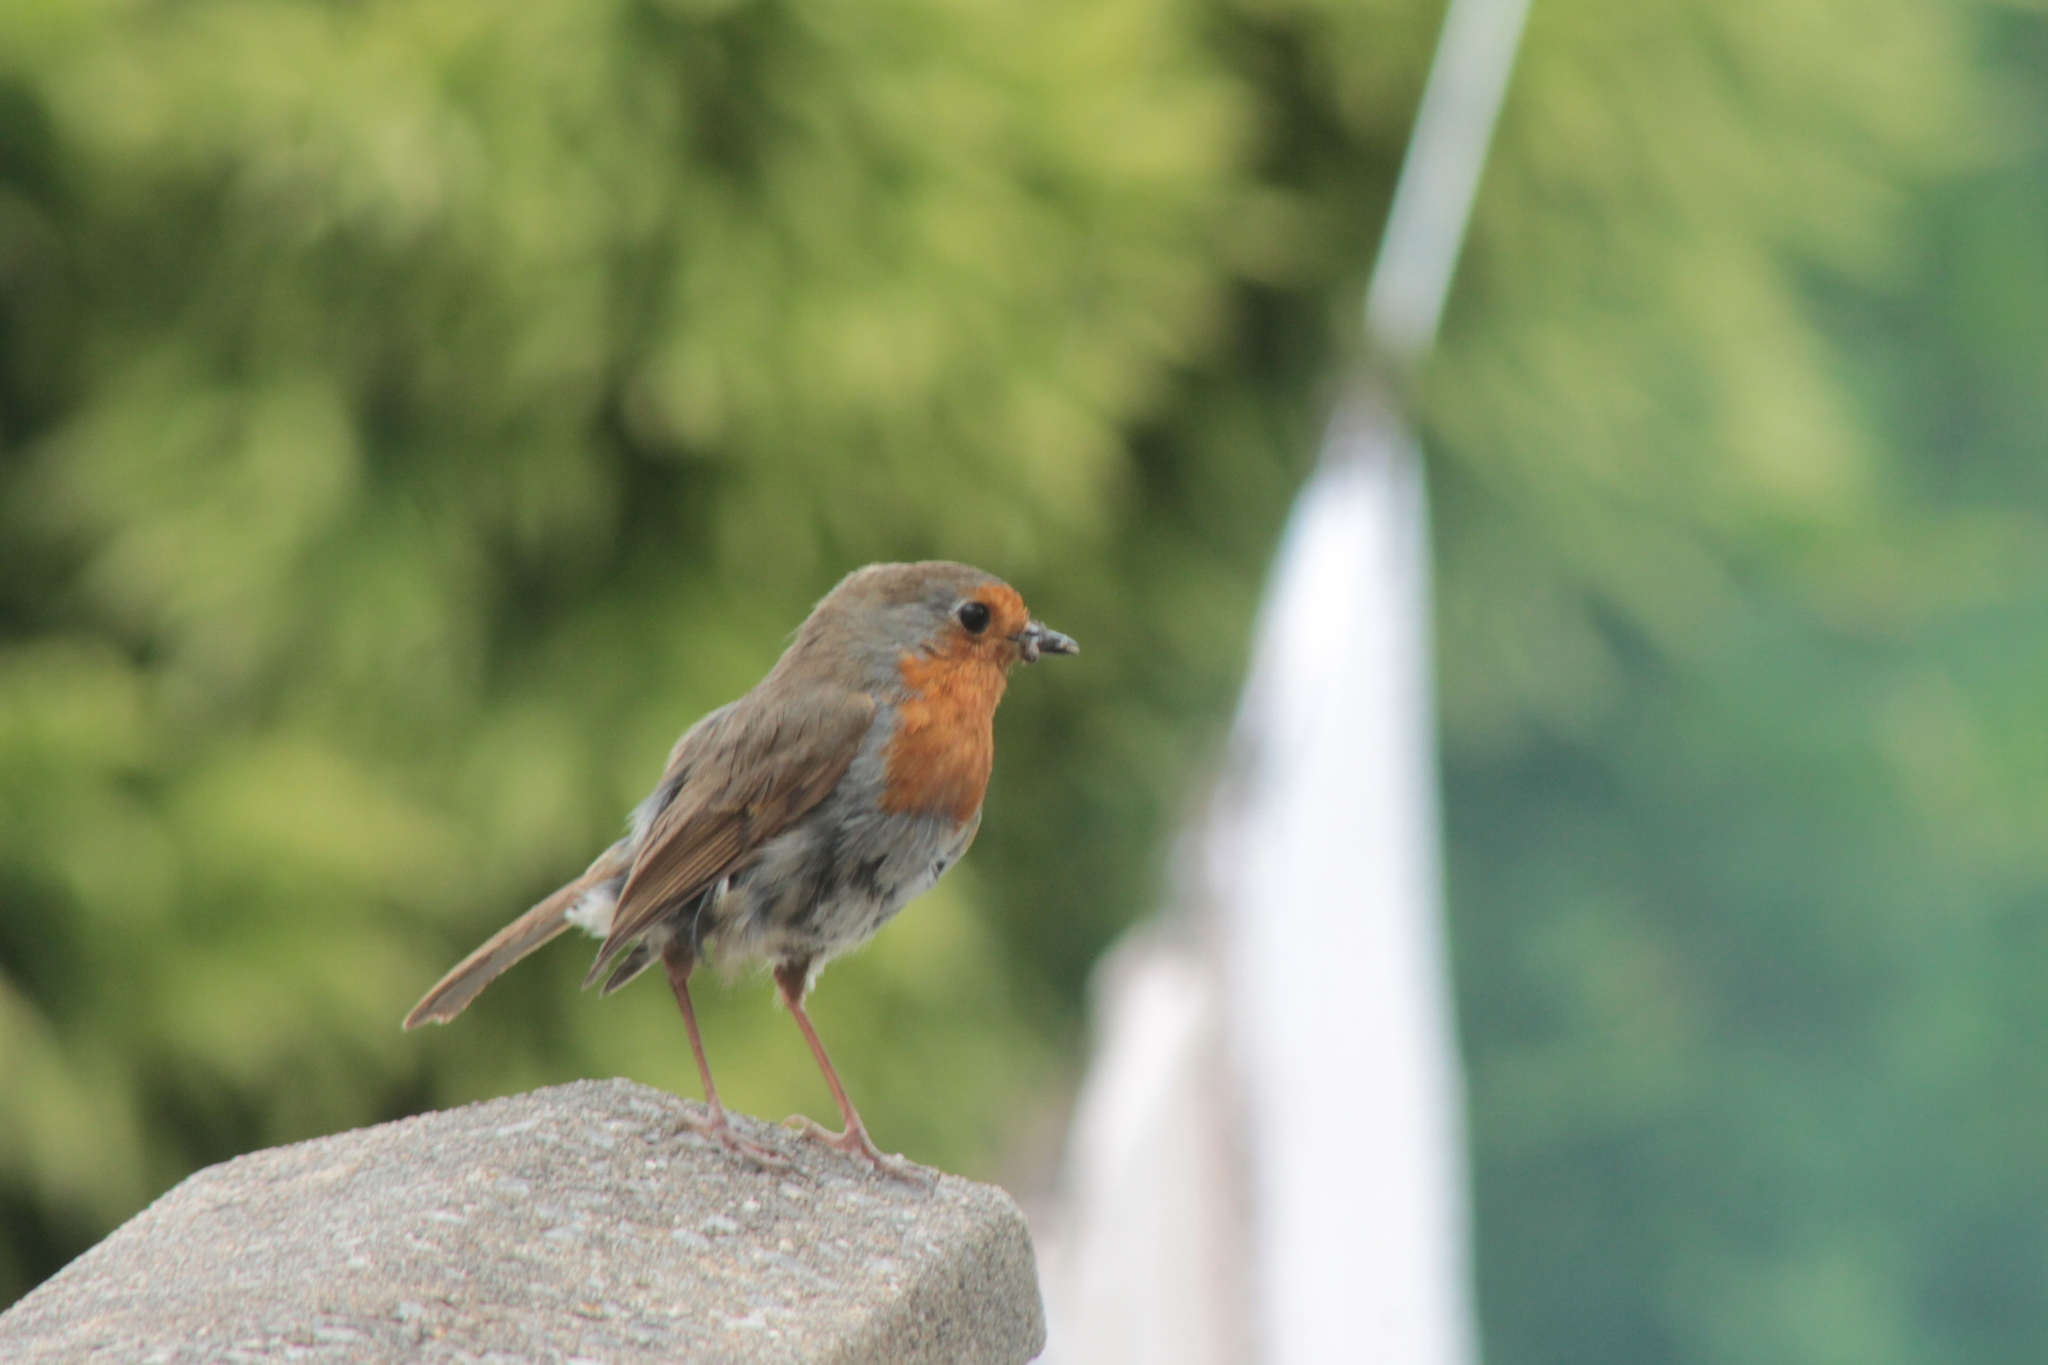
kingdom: Animalia
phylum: Chordata
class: Aves
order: Passeriformes
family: Muscicapidae
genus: Erithacus
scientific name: Erithacus rubecula
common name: European robin
